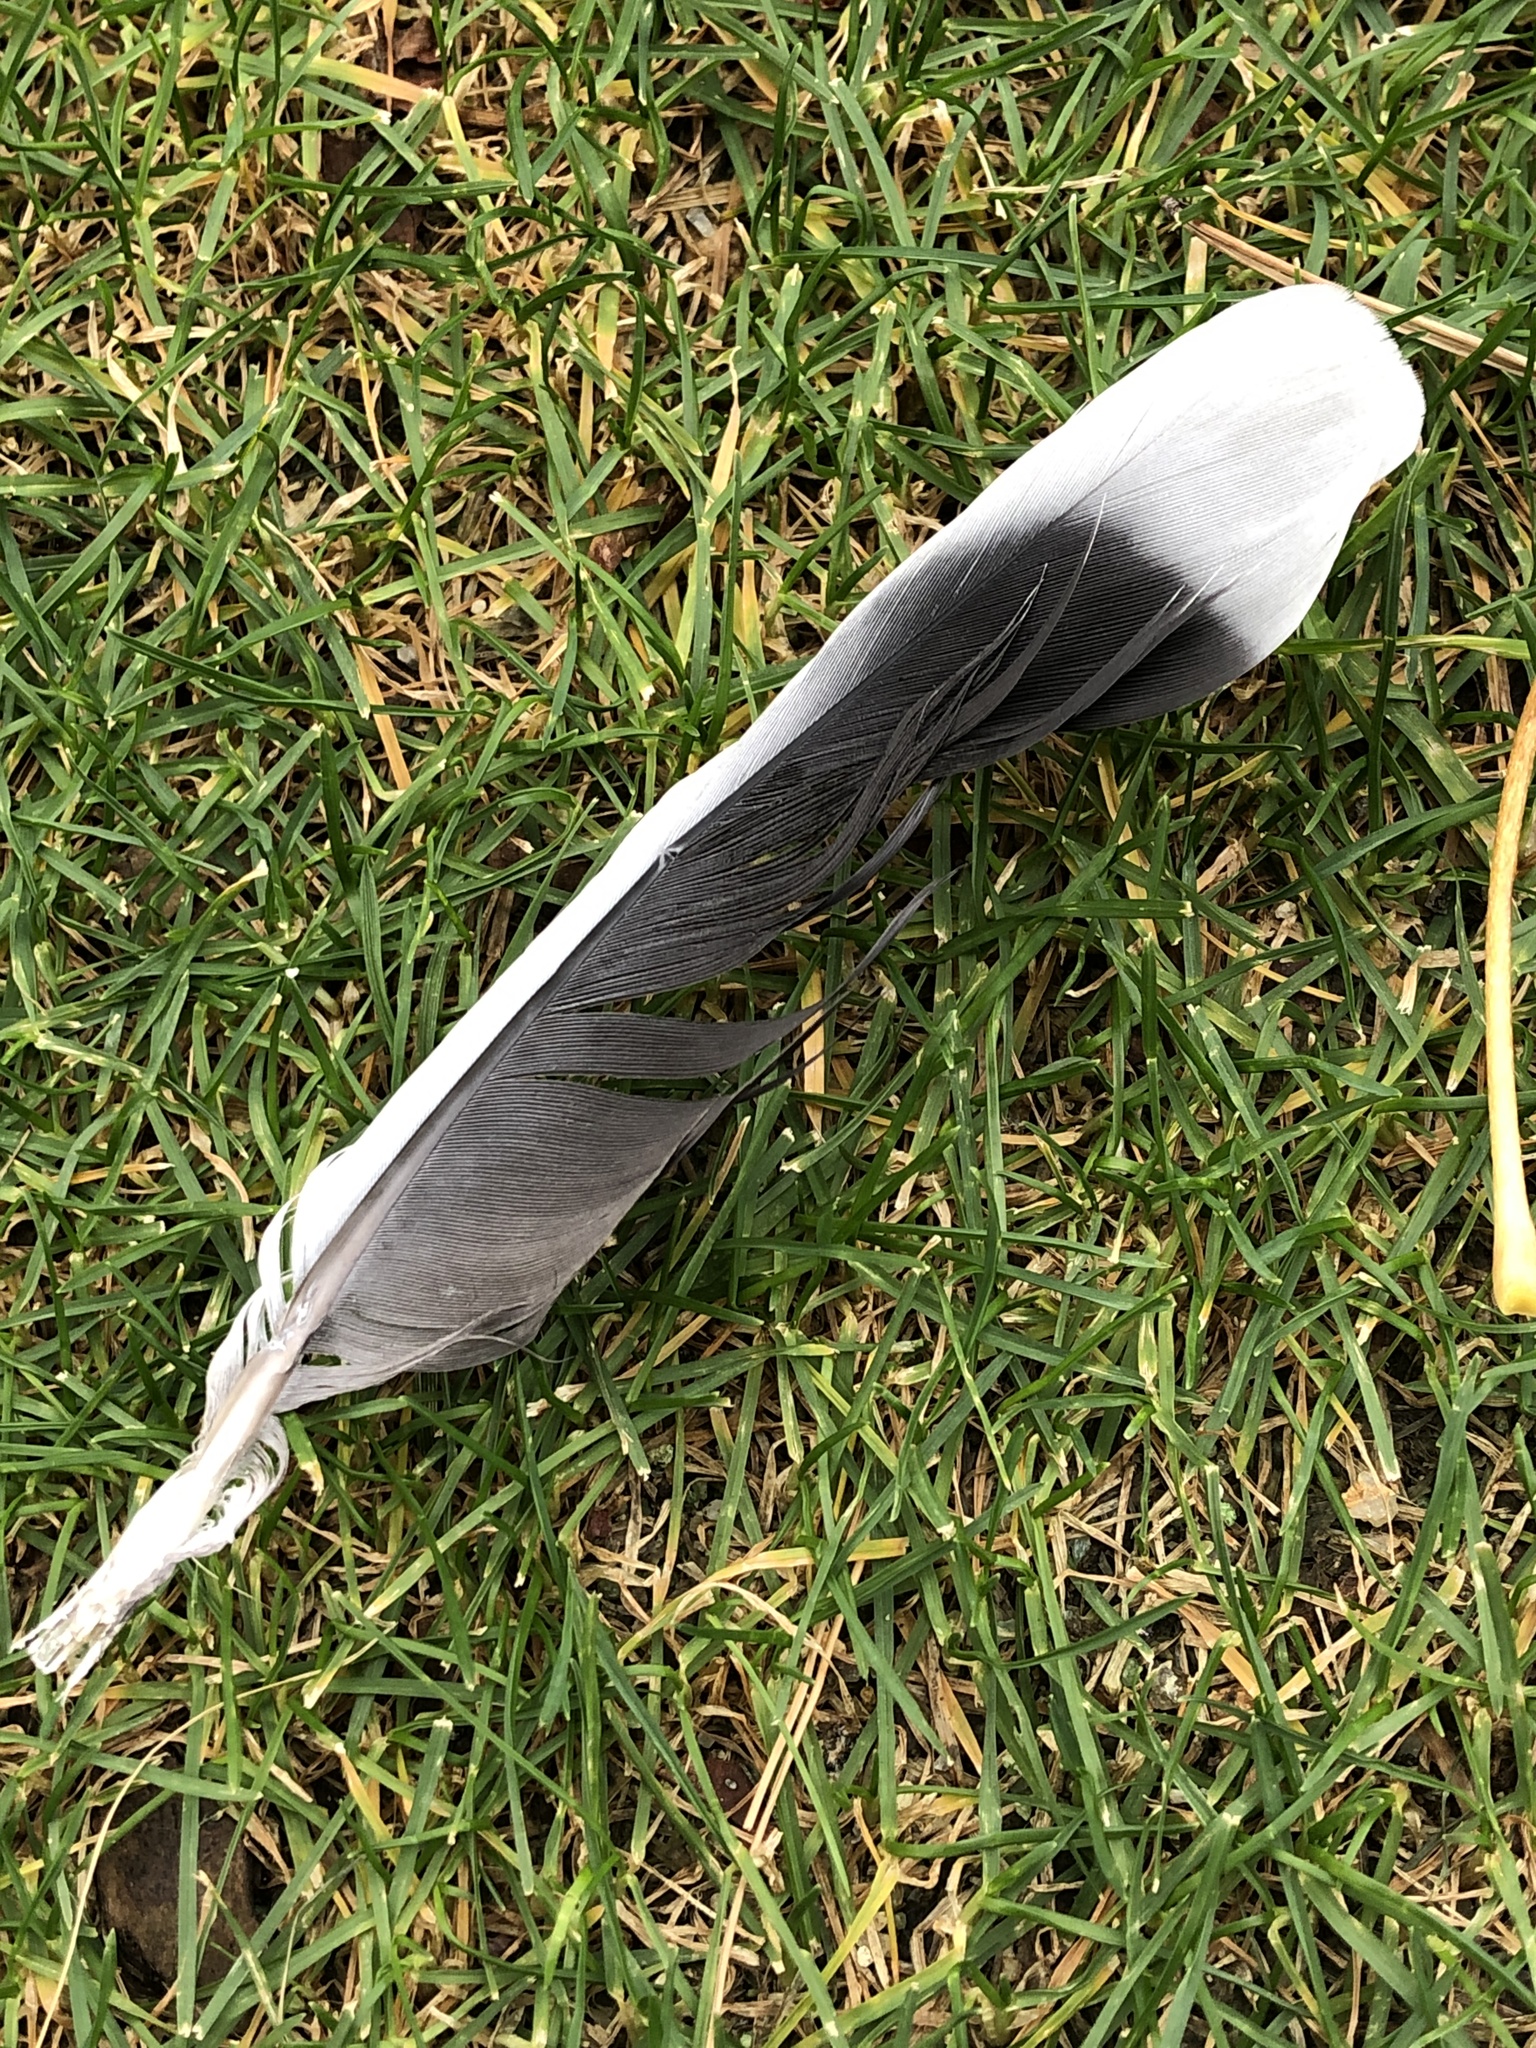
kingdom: Animalia
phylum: Chordata
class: Aves
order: Columbiformes
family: Columbidae
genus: Streptopelia
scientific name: Streptopelia orientalis
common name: Oriental turtle dove
